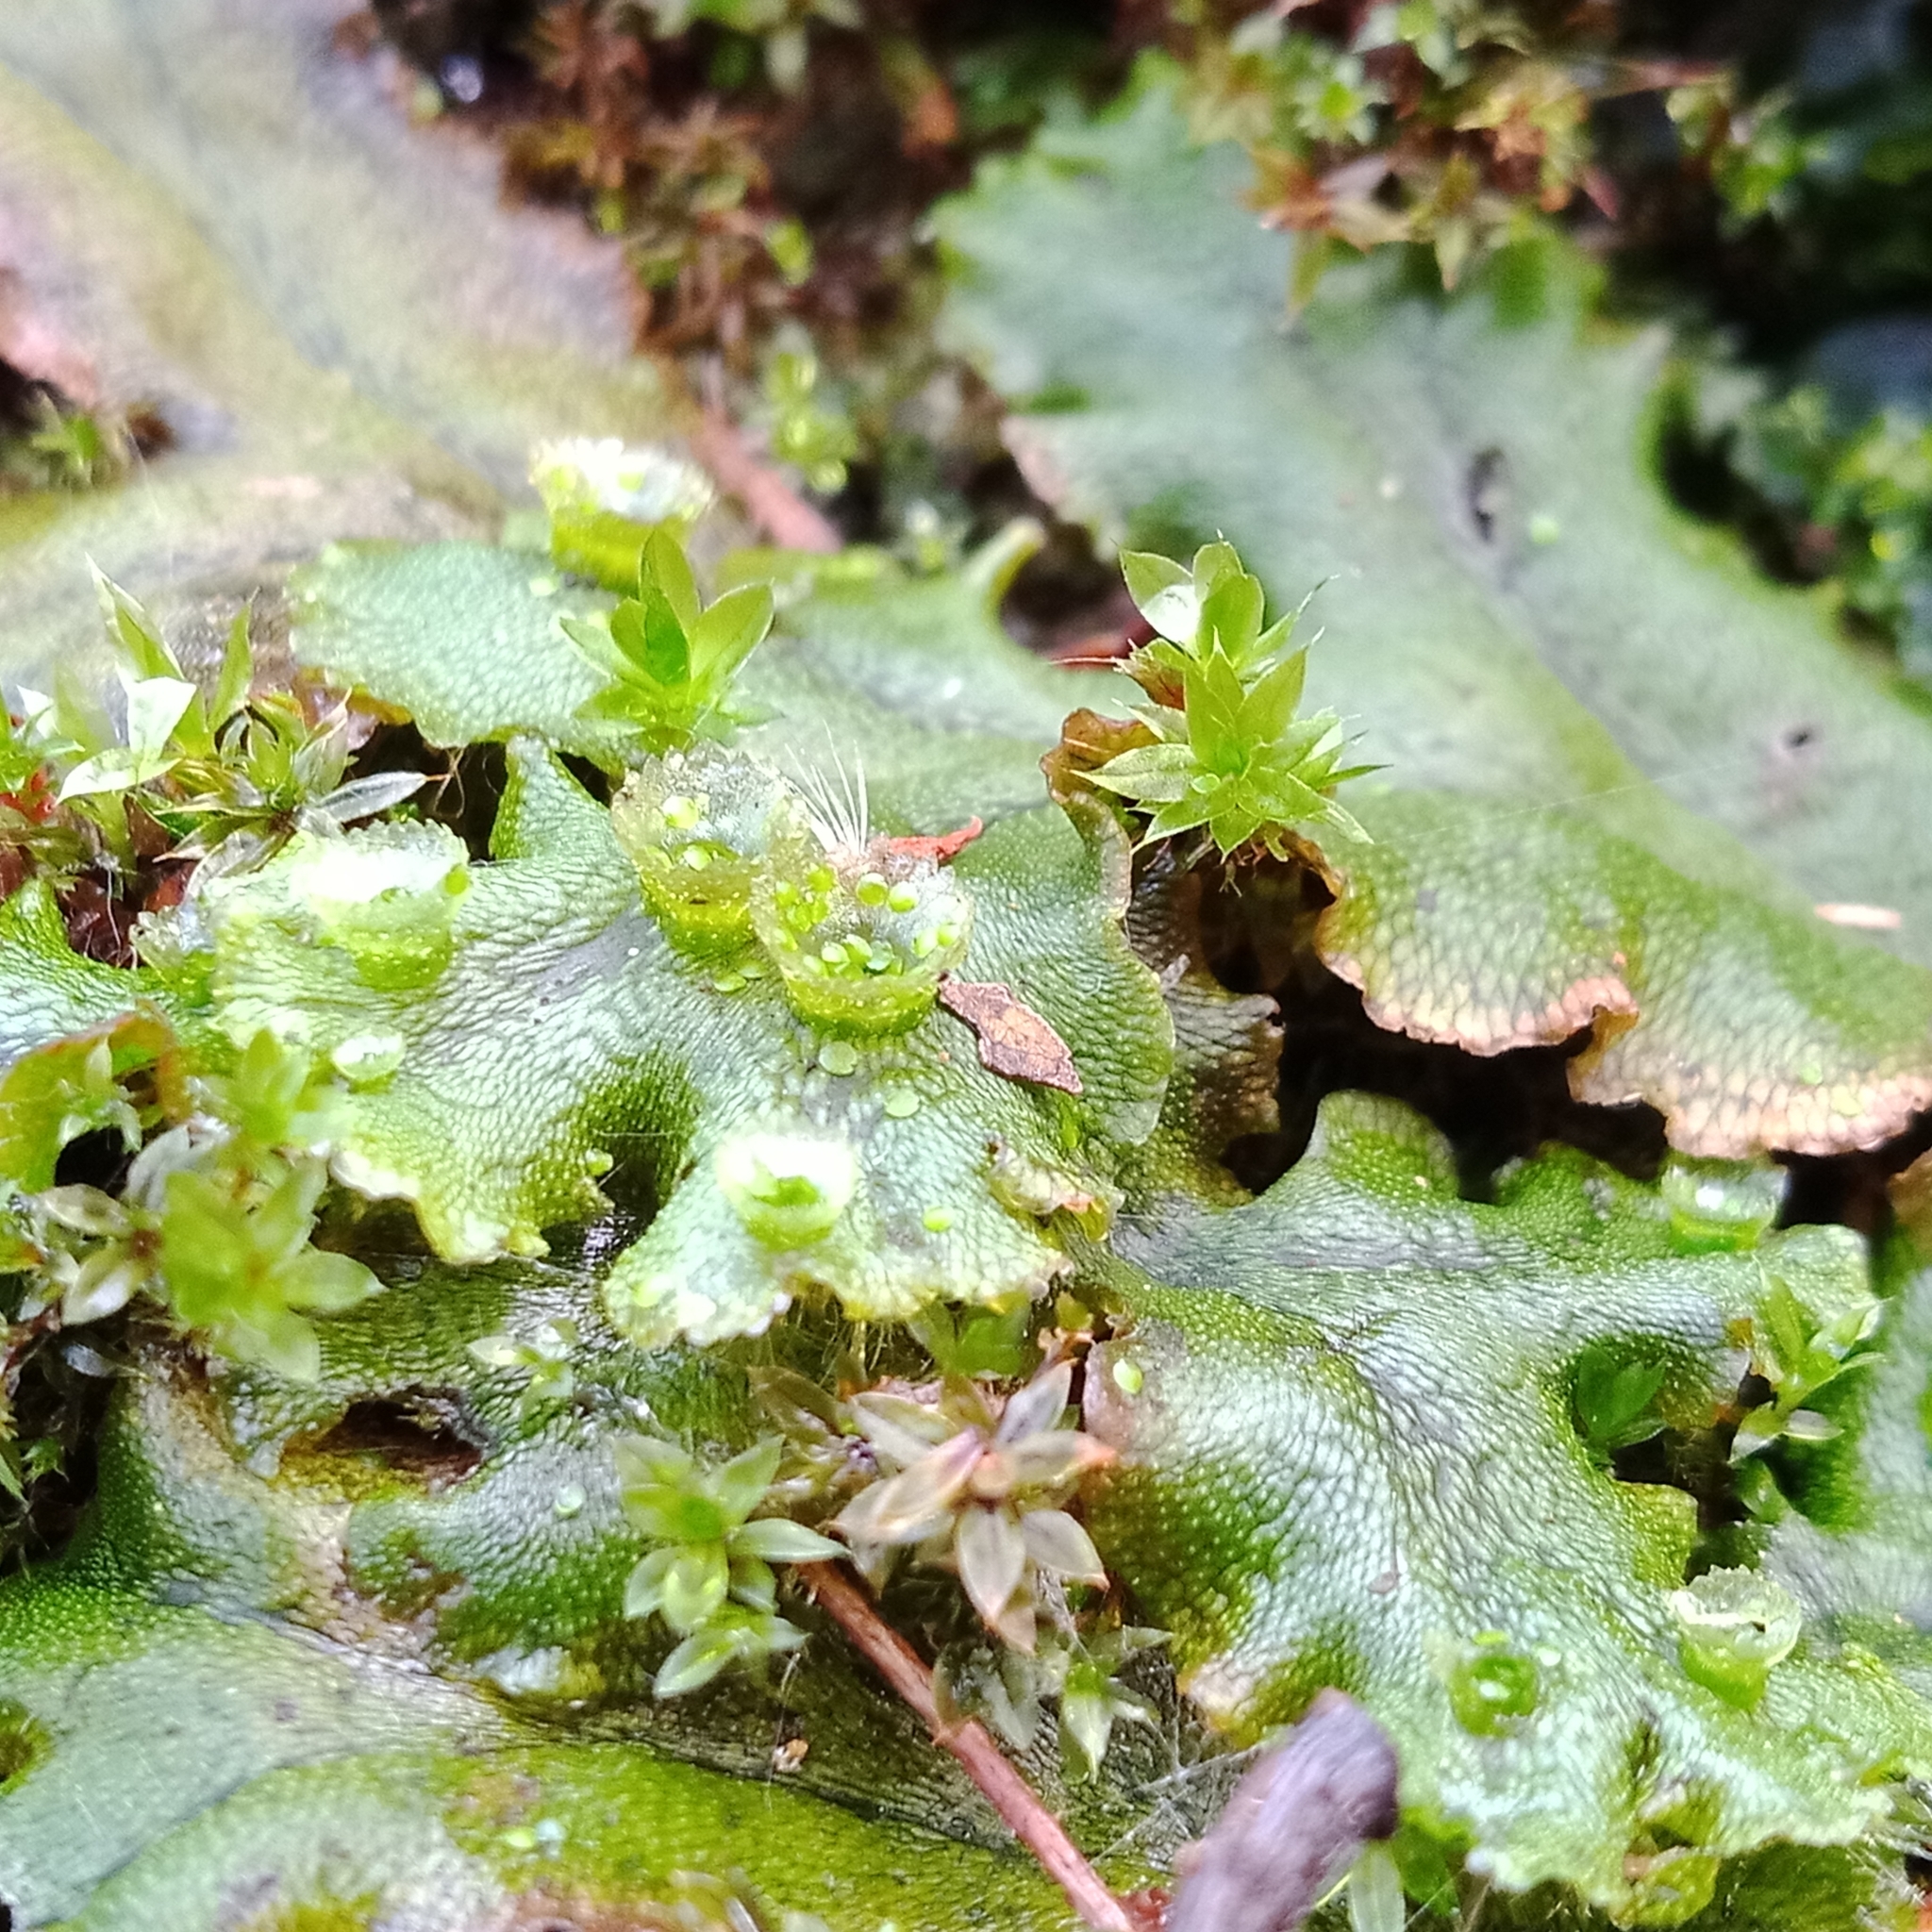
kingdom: Plantae
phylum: Marchantiophyta
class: Marchantiopsida
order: Marchantiales
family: Marchantiaceae
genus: Marchantia
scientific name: Marchantia polymorpha
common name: Common liverwort
